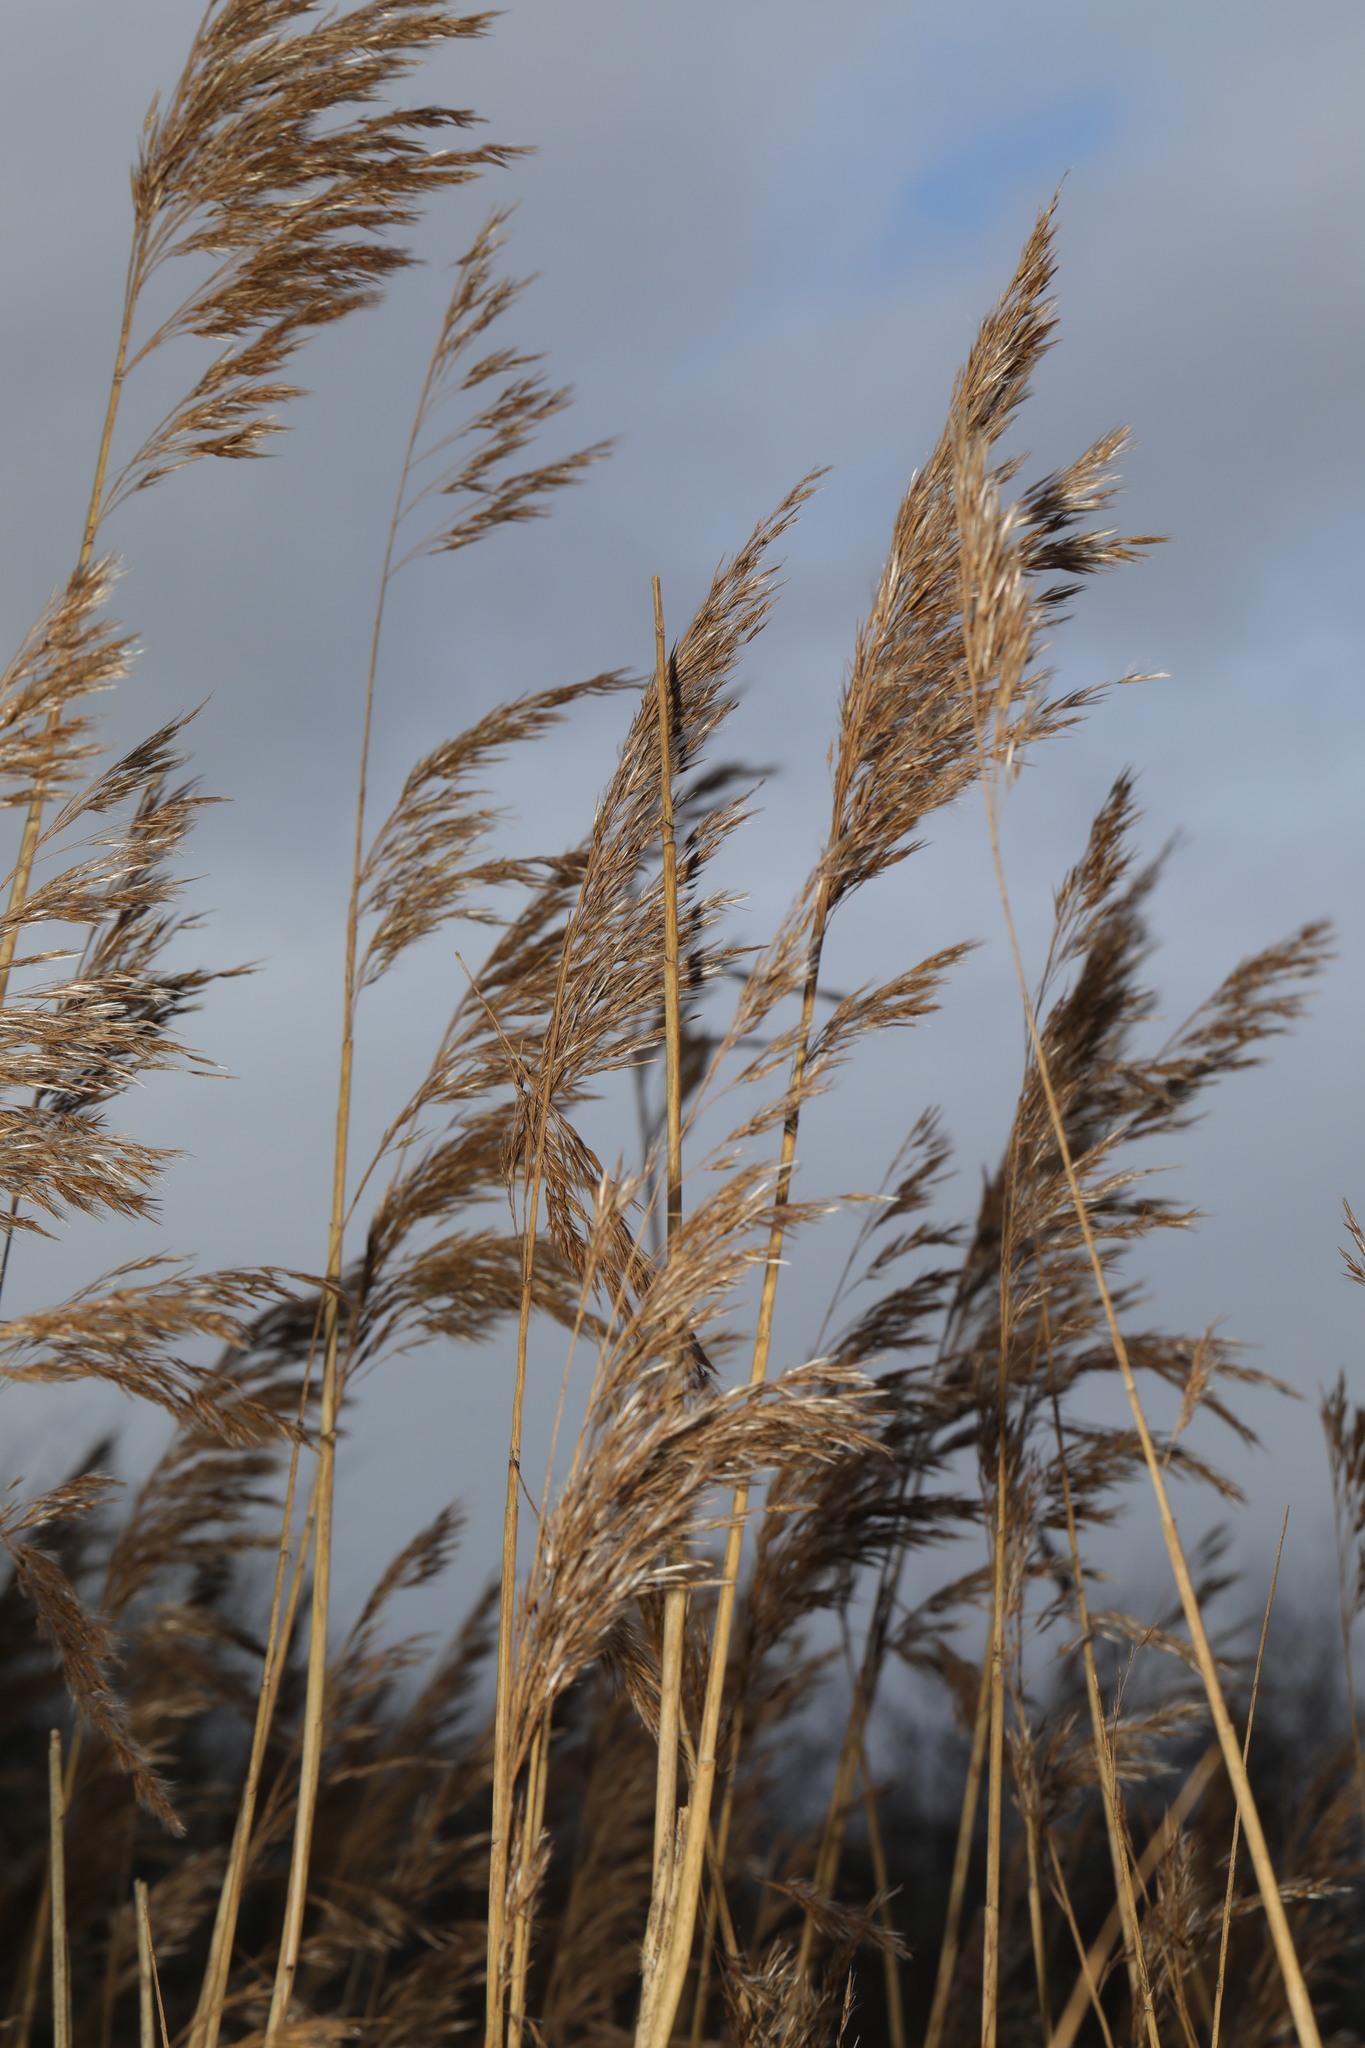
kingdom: Plantae
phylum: Tracheophyta
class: Liliopsida
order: Poales
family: Poaceae
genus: Phragmites
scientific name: Phragmites australis
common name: Common reed
